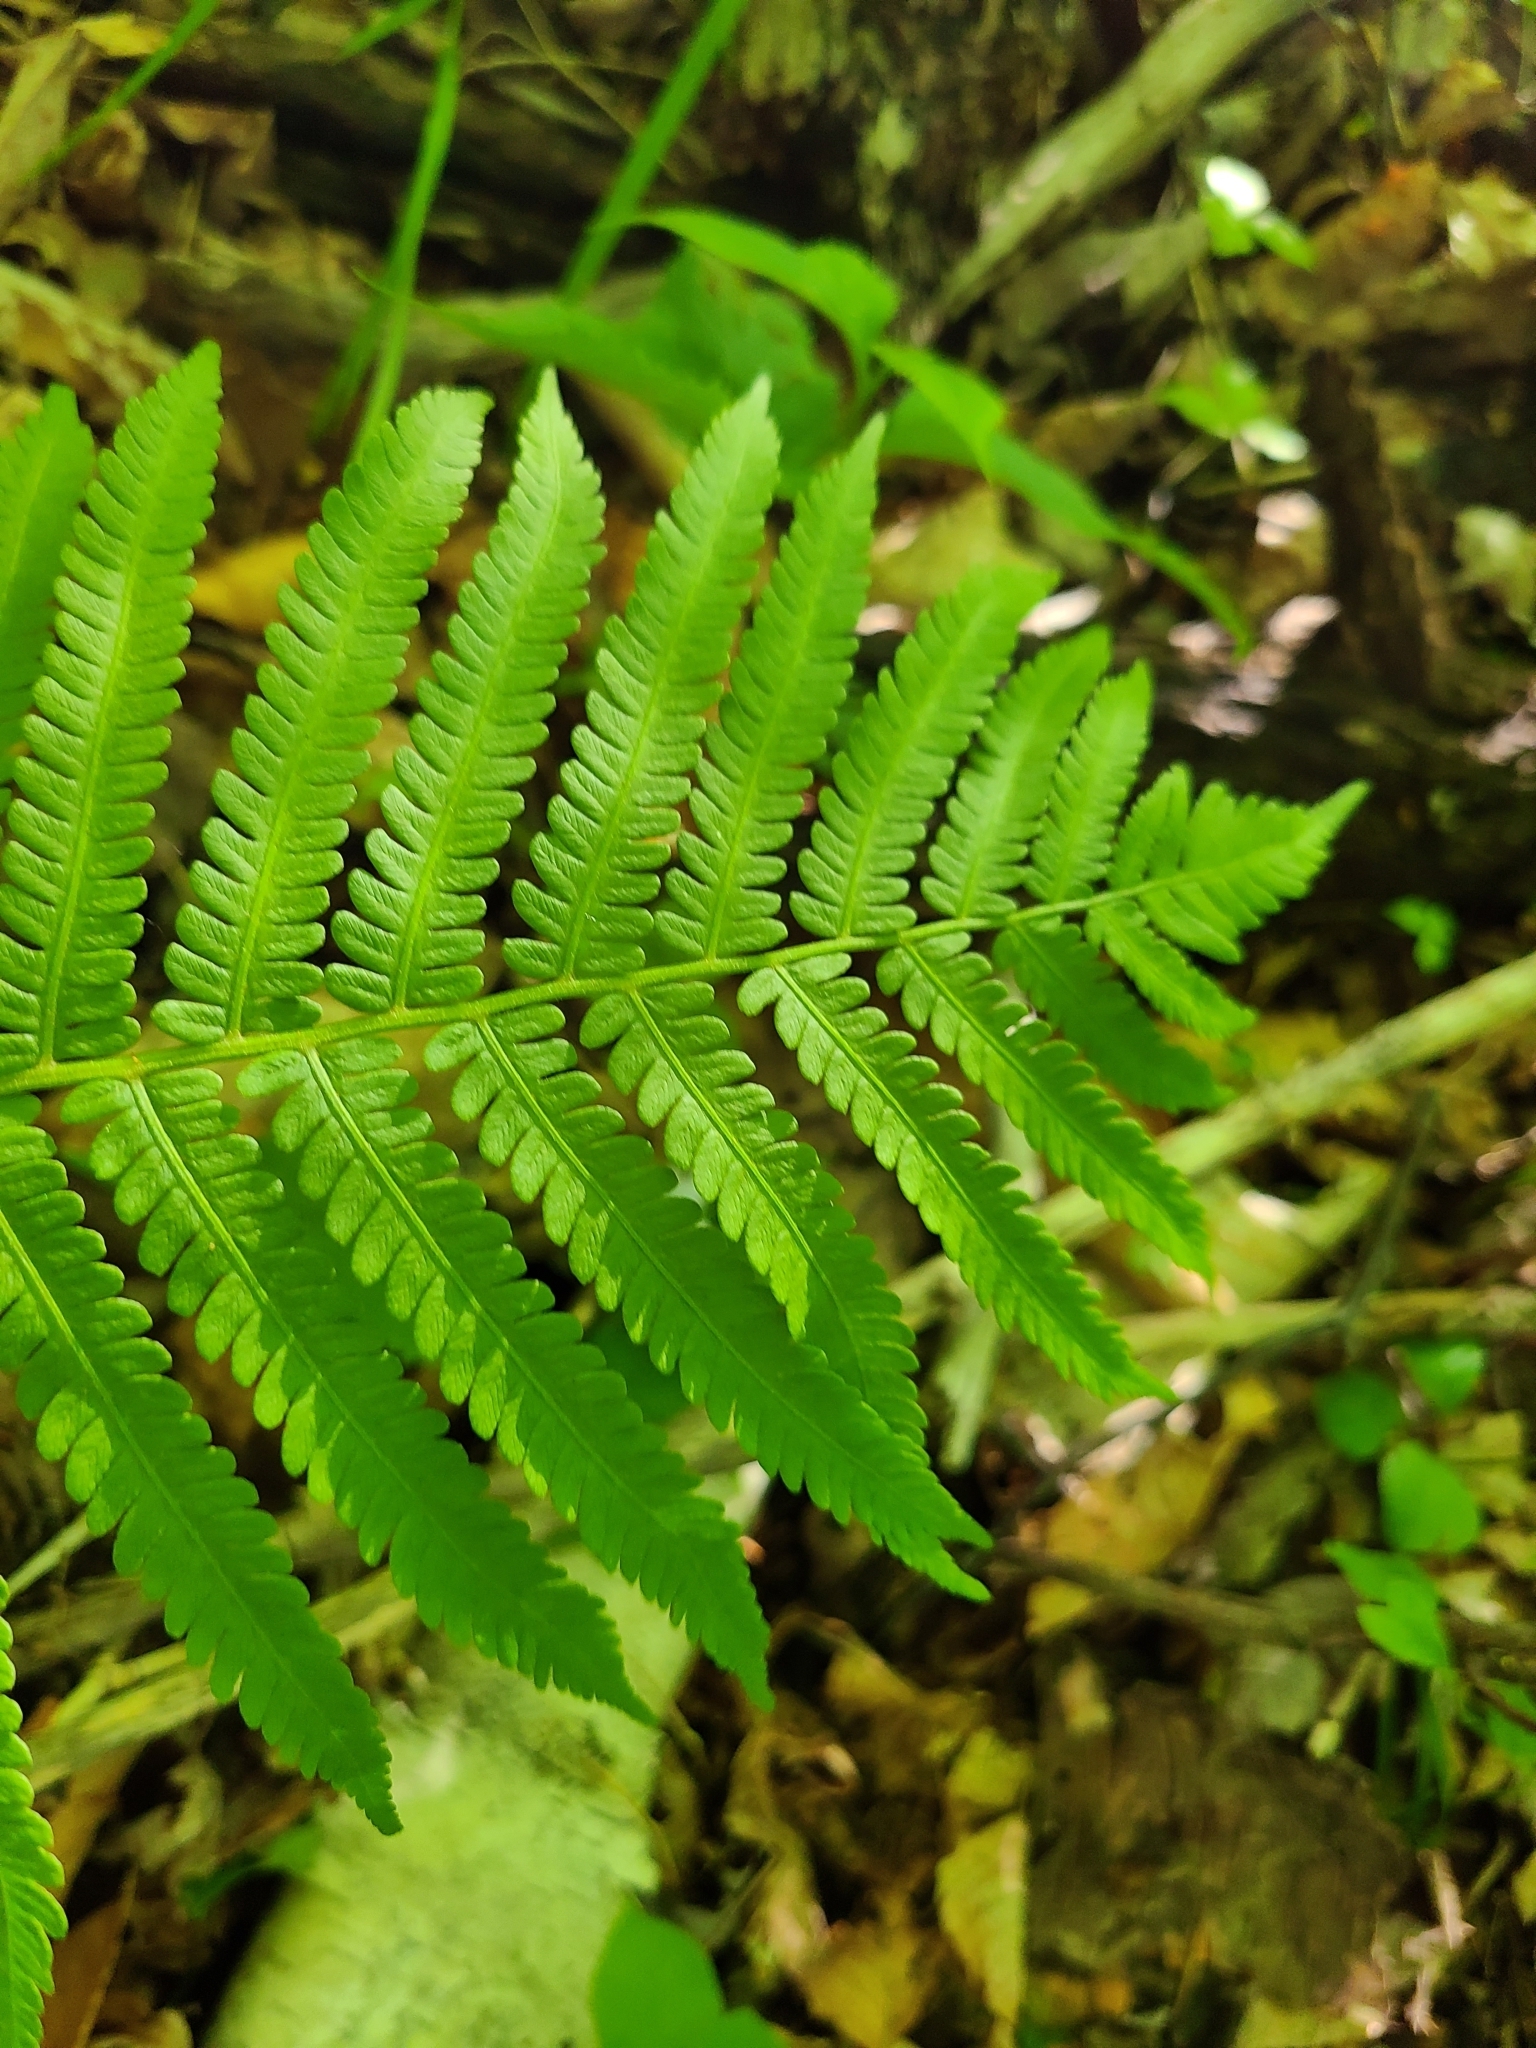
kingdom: Plantae
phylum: Tracheophyta
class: Polypodiopsida
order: Polypodiales
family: Onocleaceae
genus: Matteuccia
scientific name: Matteuccia struthiopteris
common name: Ostrich fern
